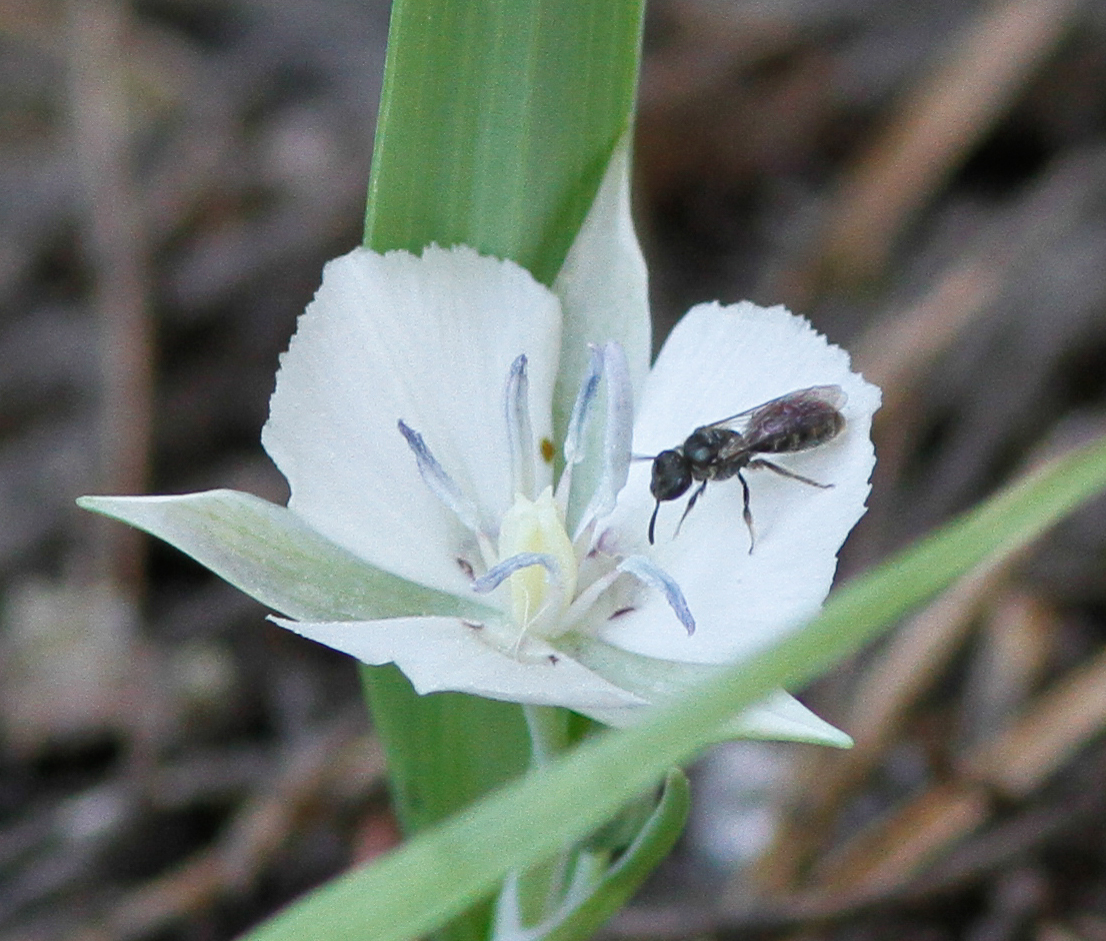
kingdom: Plantae
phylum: Tracheophyta
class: Liliopsida
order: Liliales
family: Liliaceae
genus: Calochortus
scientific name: Calochortus minimus
